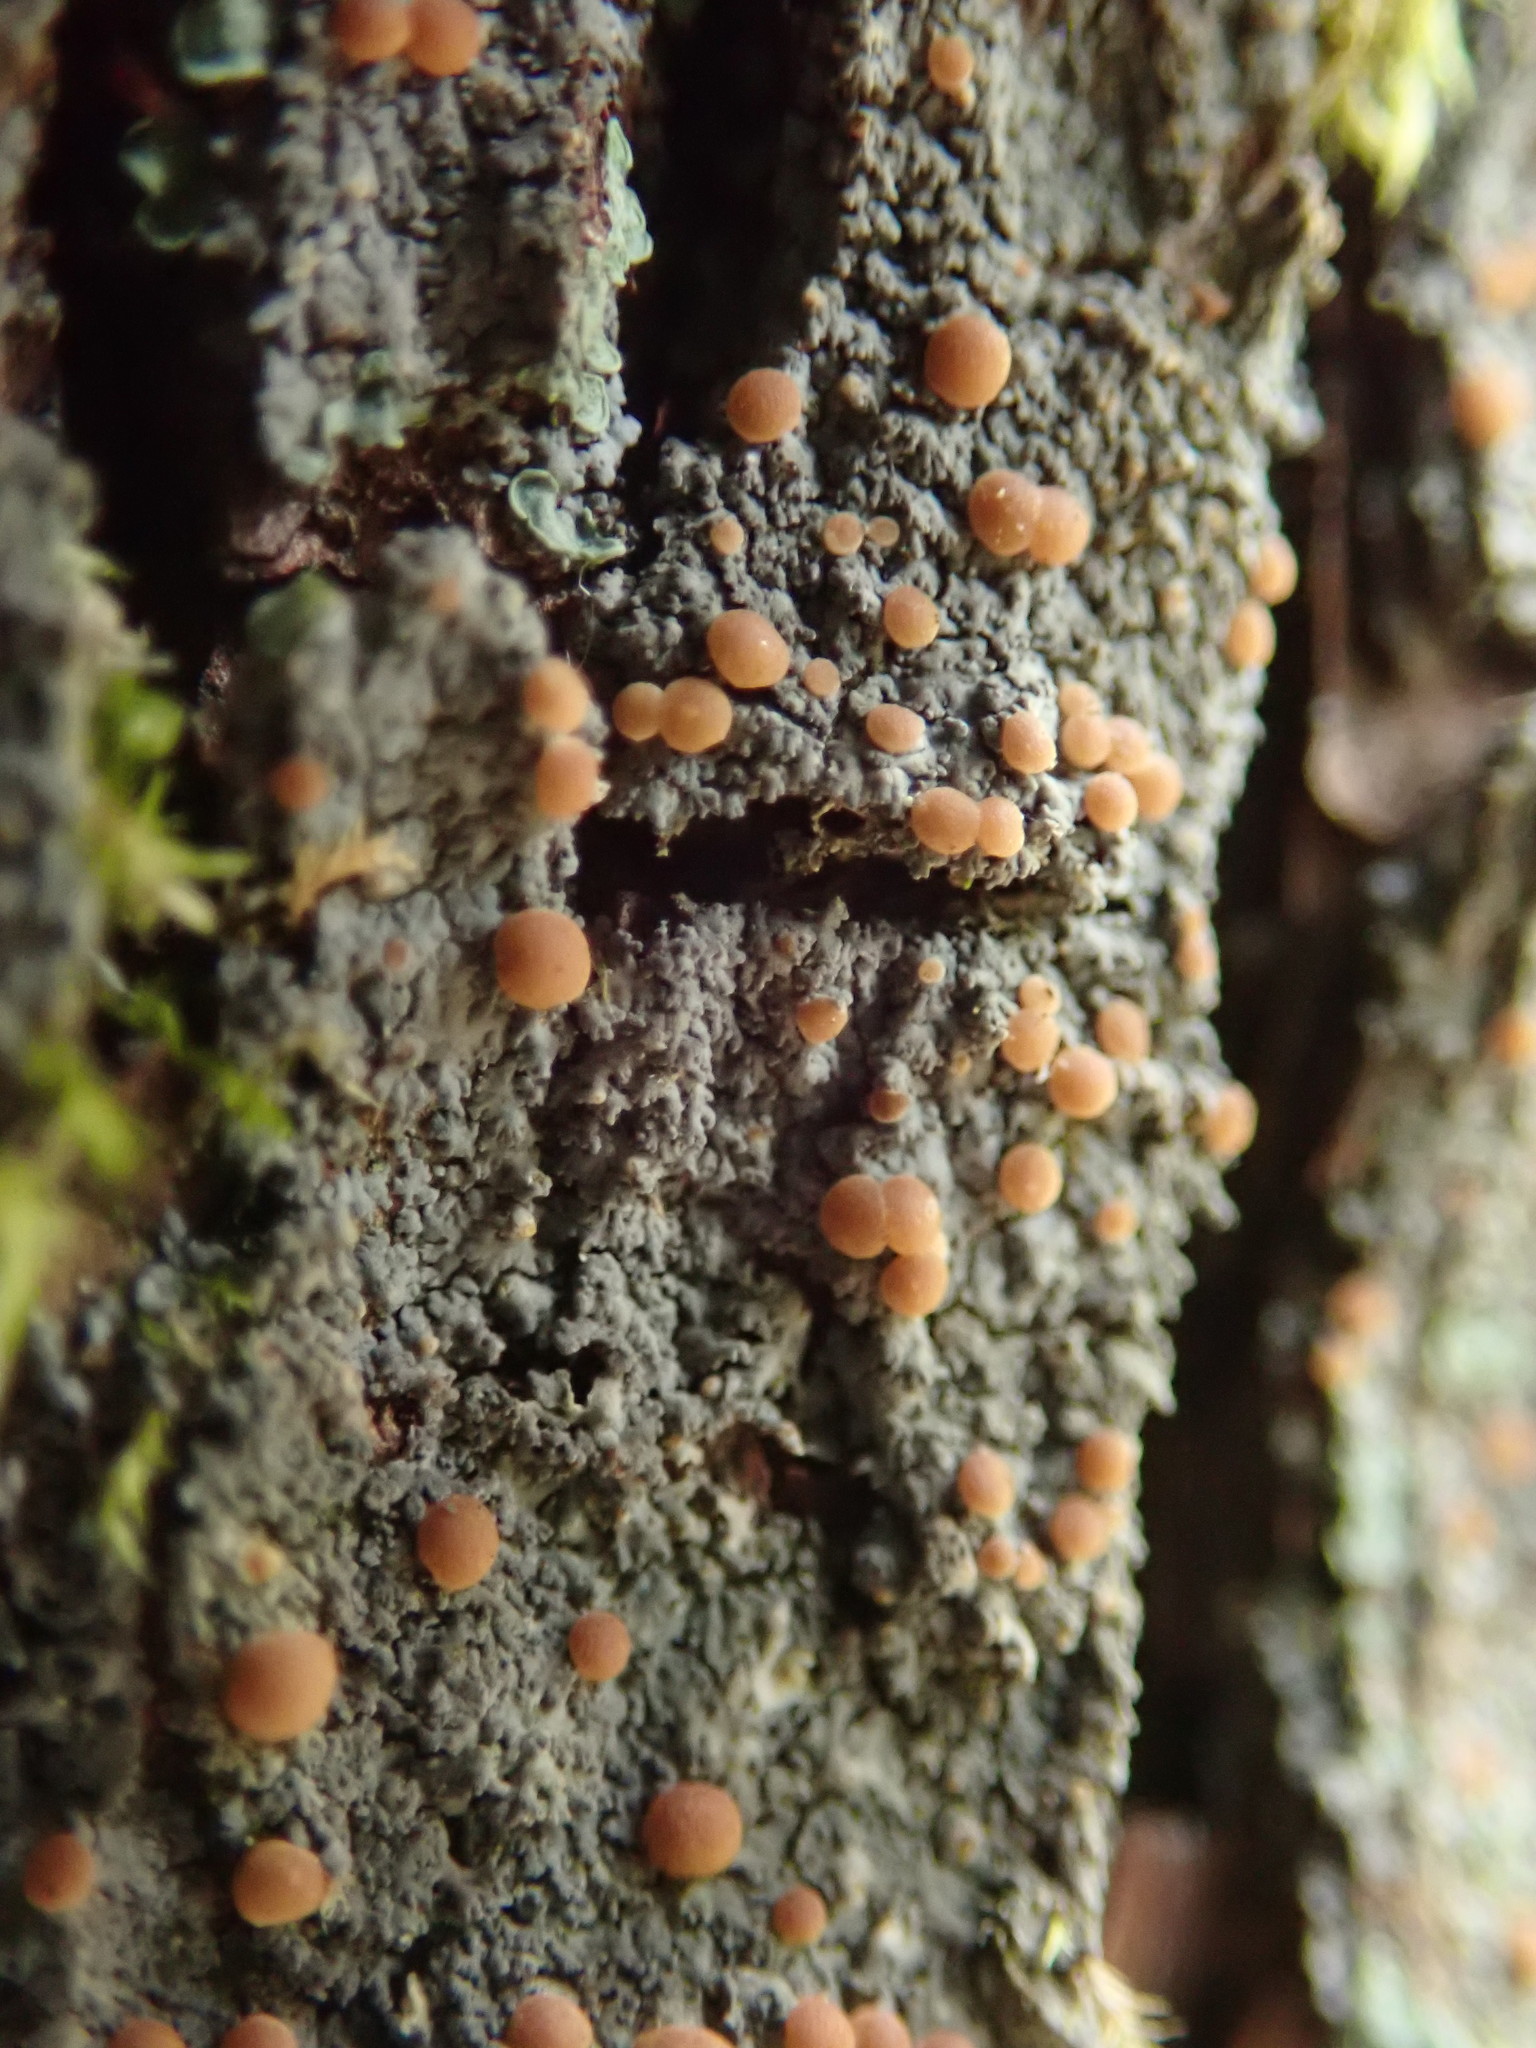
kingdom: Fungi
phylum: Ascomycota
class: Lecanoromycetes
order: Peltigerales
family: Vahliellaceae
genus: Vahliella
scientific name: Vahliella saubinetii
